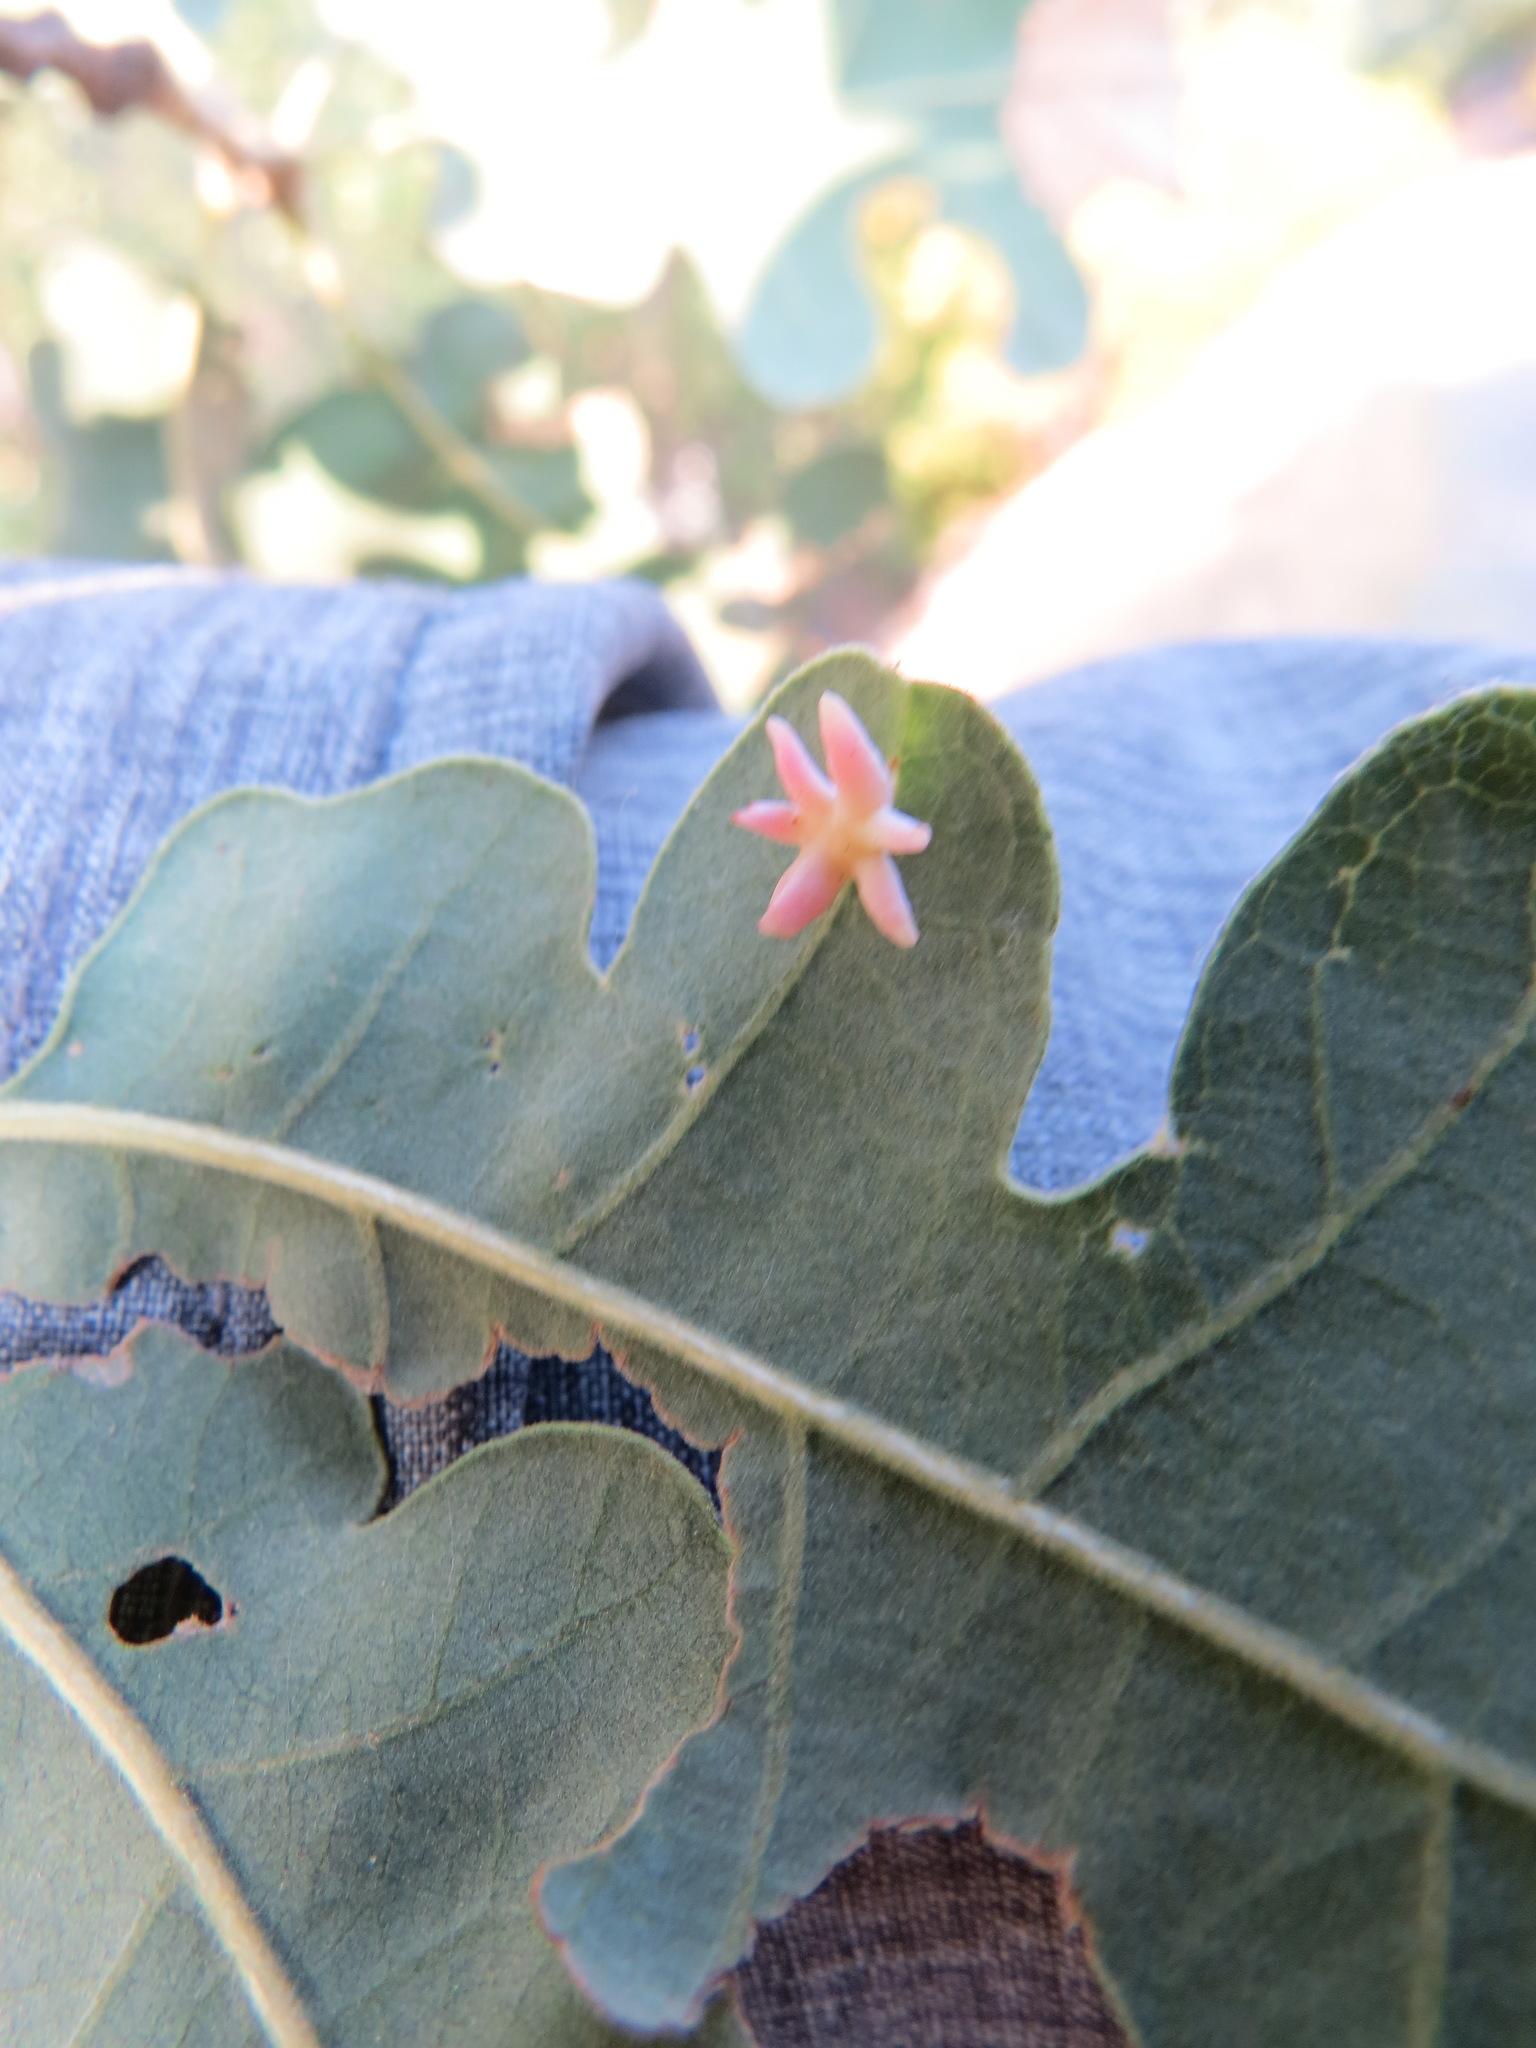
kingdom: Animalia
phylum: Arthropoda
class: Insecta
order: Hymenoptera
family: Cynipidae
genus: Cynips
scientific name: Cynips douglasi
